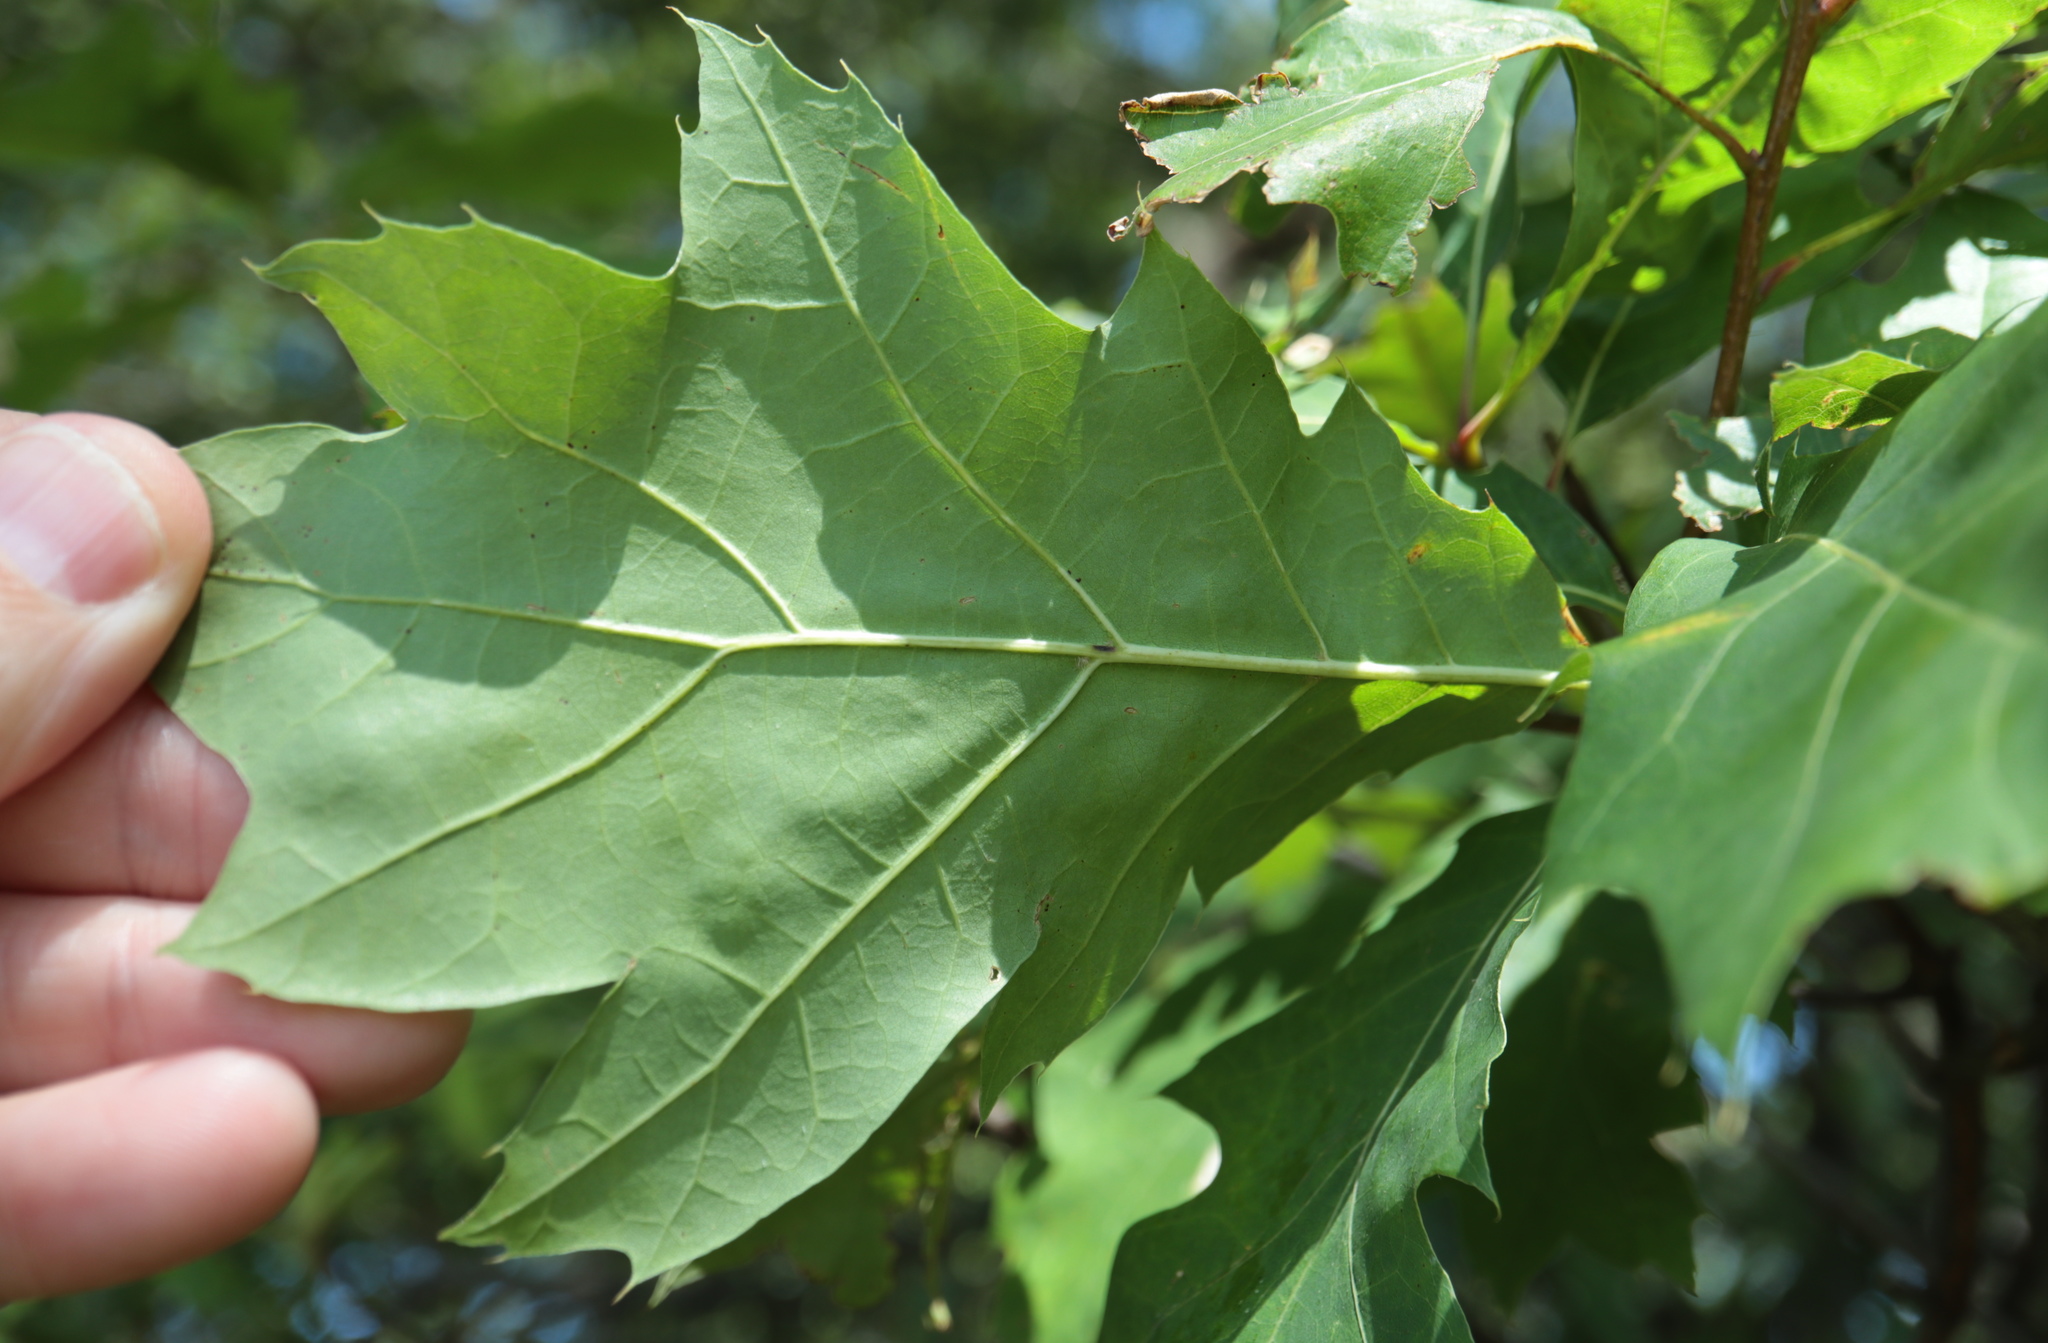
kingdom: Plantae
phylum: Tracheophyta
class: Magnoliopsida
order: Fagales
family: Fagaceae
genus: Quercus
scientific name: Quercus rubra
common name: Red oak
